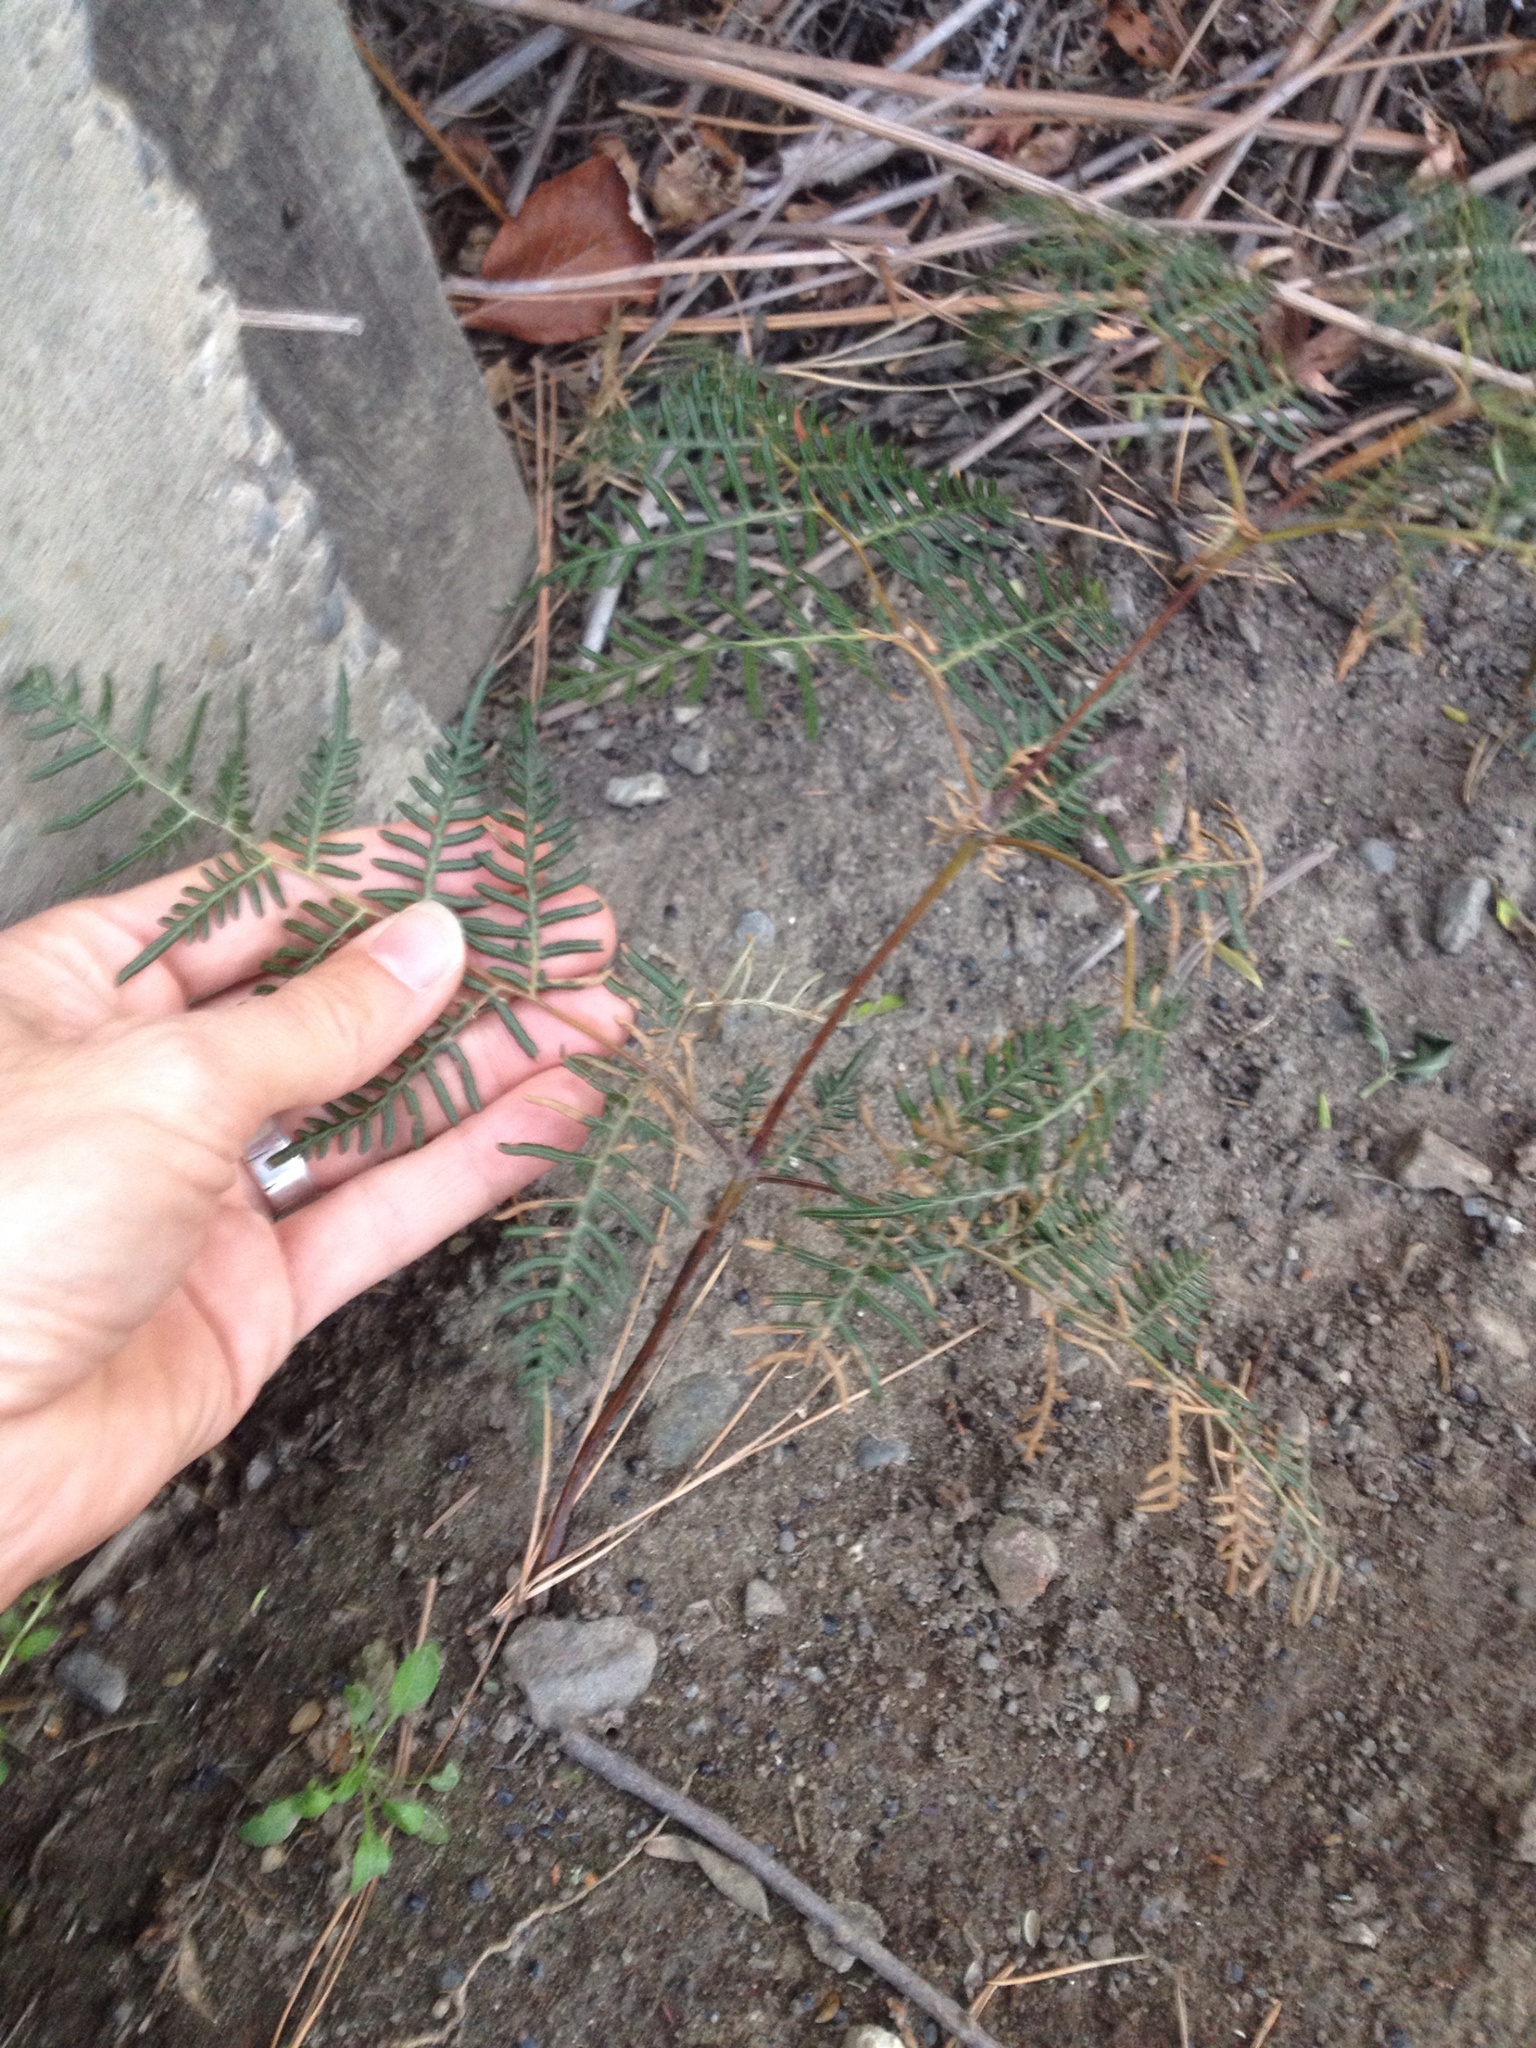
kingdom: Plantae
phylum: Tracheophyta
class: Polypodiopsida
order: Polypodiales
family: Dennstaedtiaceae
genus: Pteridium
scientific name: Pteridium esculentum
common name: Bracken fern
